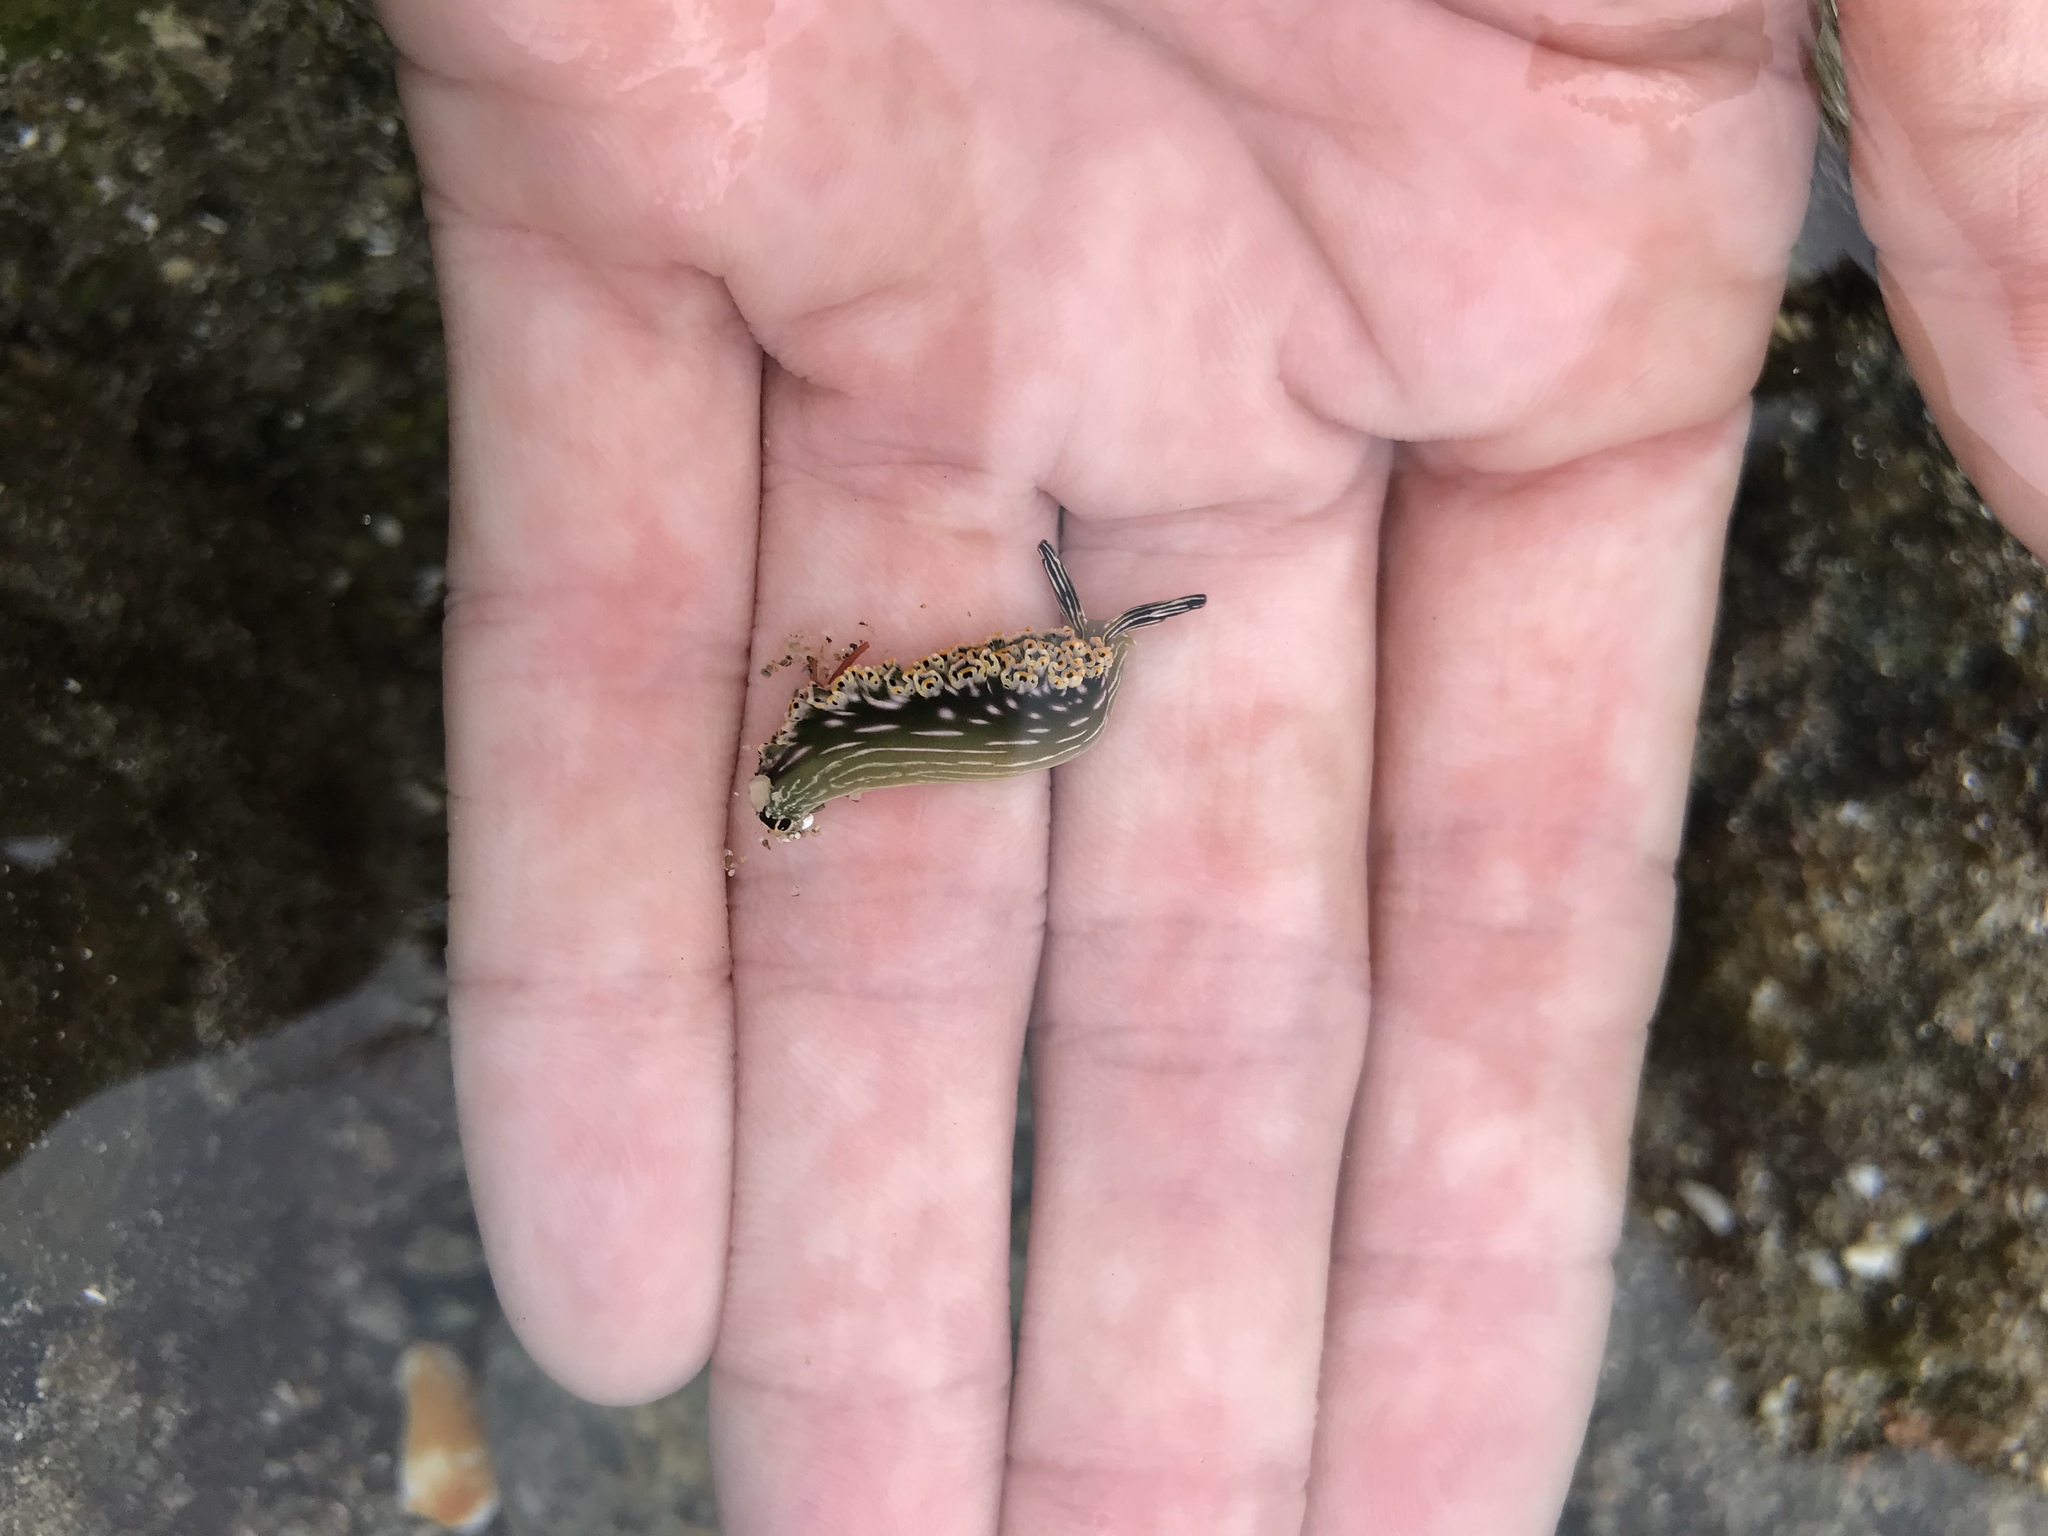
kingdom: Animalia
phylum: Mollusca
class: Gastropoda
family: Plakobranchidae
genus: Elysia
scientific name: Elysia diomedea
